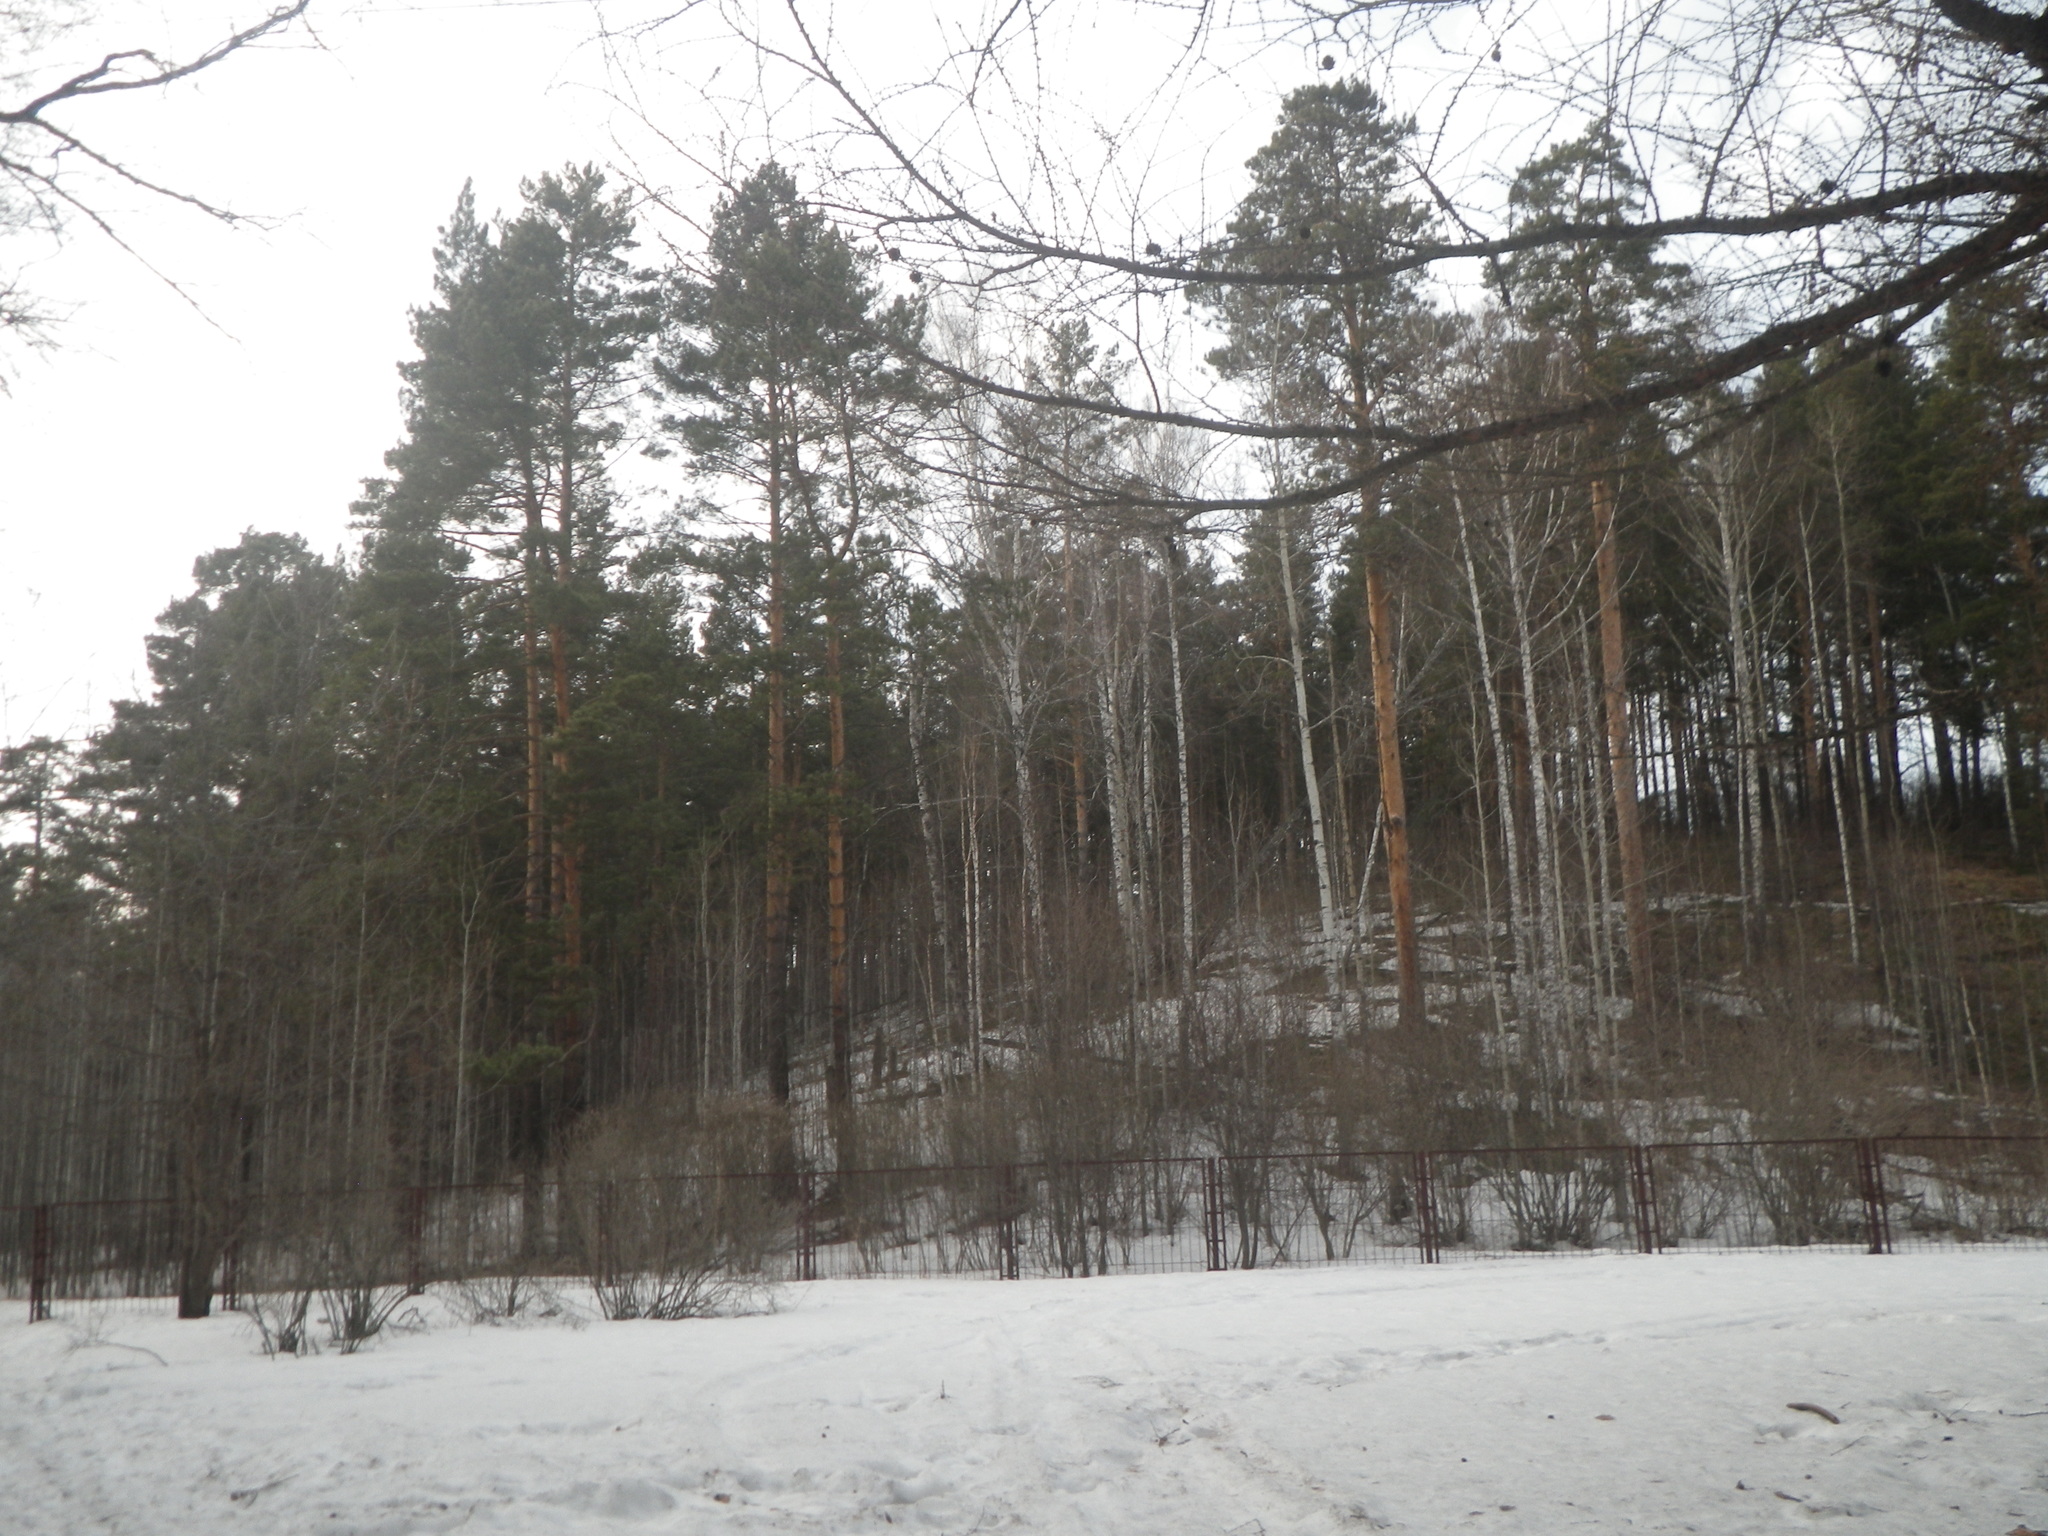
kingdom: Plantae
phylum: Tracheophyta
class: Pinopsida
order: Pinales
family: Pinaceae
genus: Pinus
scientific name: Pinus sylvestris
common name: Scots pine
